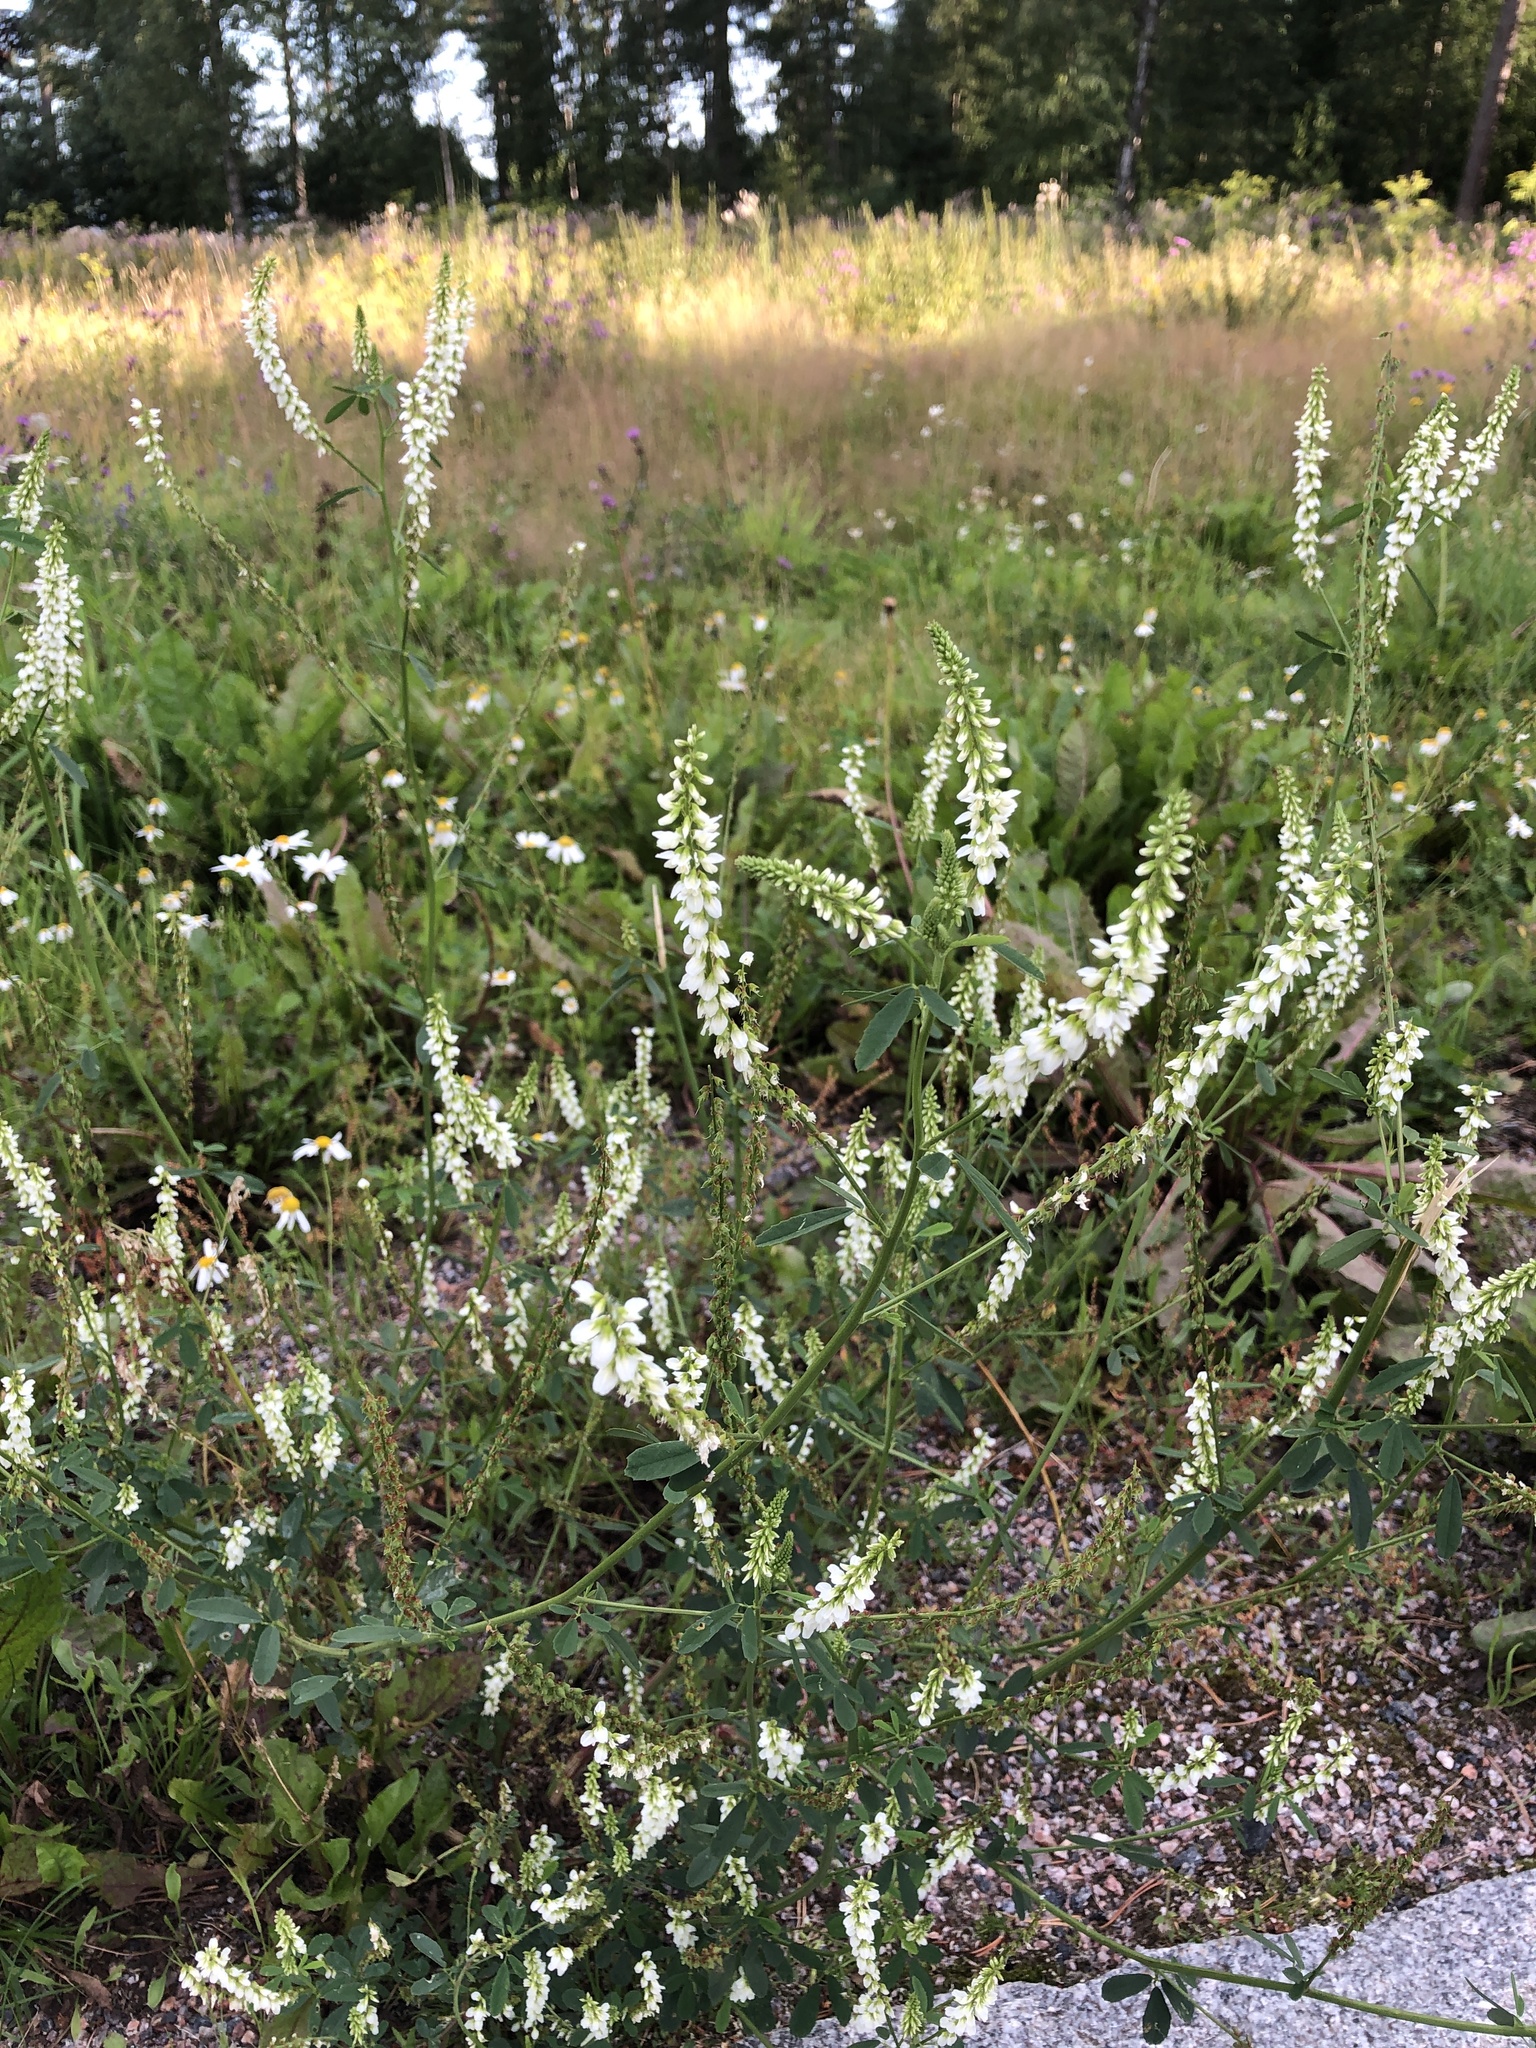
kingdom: Plantae
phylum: Tracheophyta
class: Magnoliopsida
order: Fabales
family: Fabaceae
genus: Melilotus
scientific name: Melilotus albus
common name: White melilot
